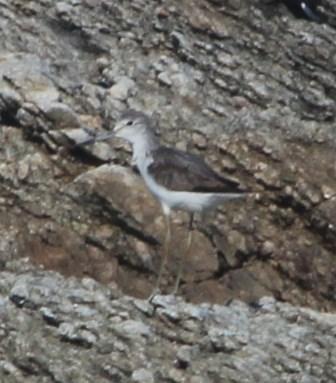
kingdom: Animalia
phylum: Chordata
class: Aves
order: Charadriiformes
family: Scolopacidae
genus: Tringa
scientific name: Tringa stagnatilis
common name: Marsh sandpiper
